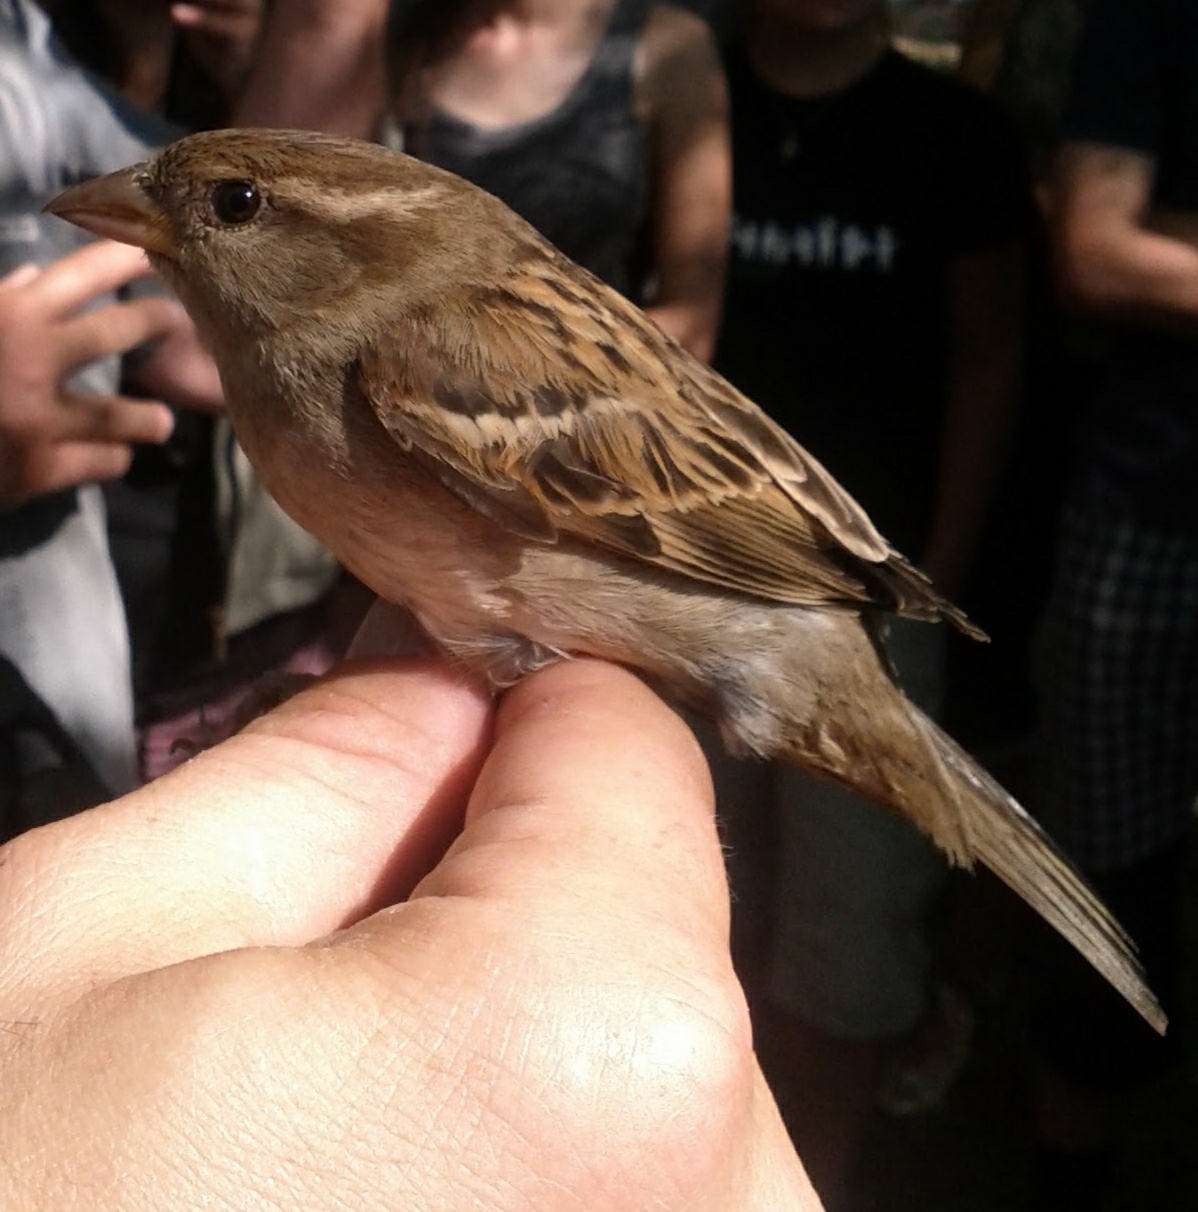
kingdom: Animalia
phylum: Chordata
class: Aves
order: Passeriformes
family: Passeridae
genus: Passer
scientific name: Passer domesticus
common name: House sparrow
